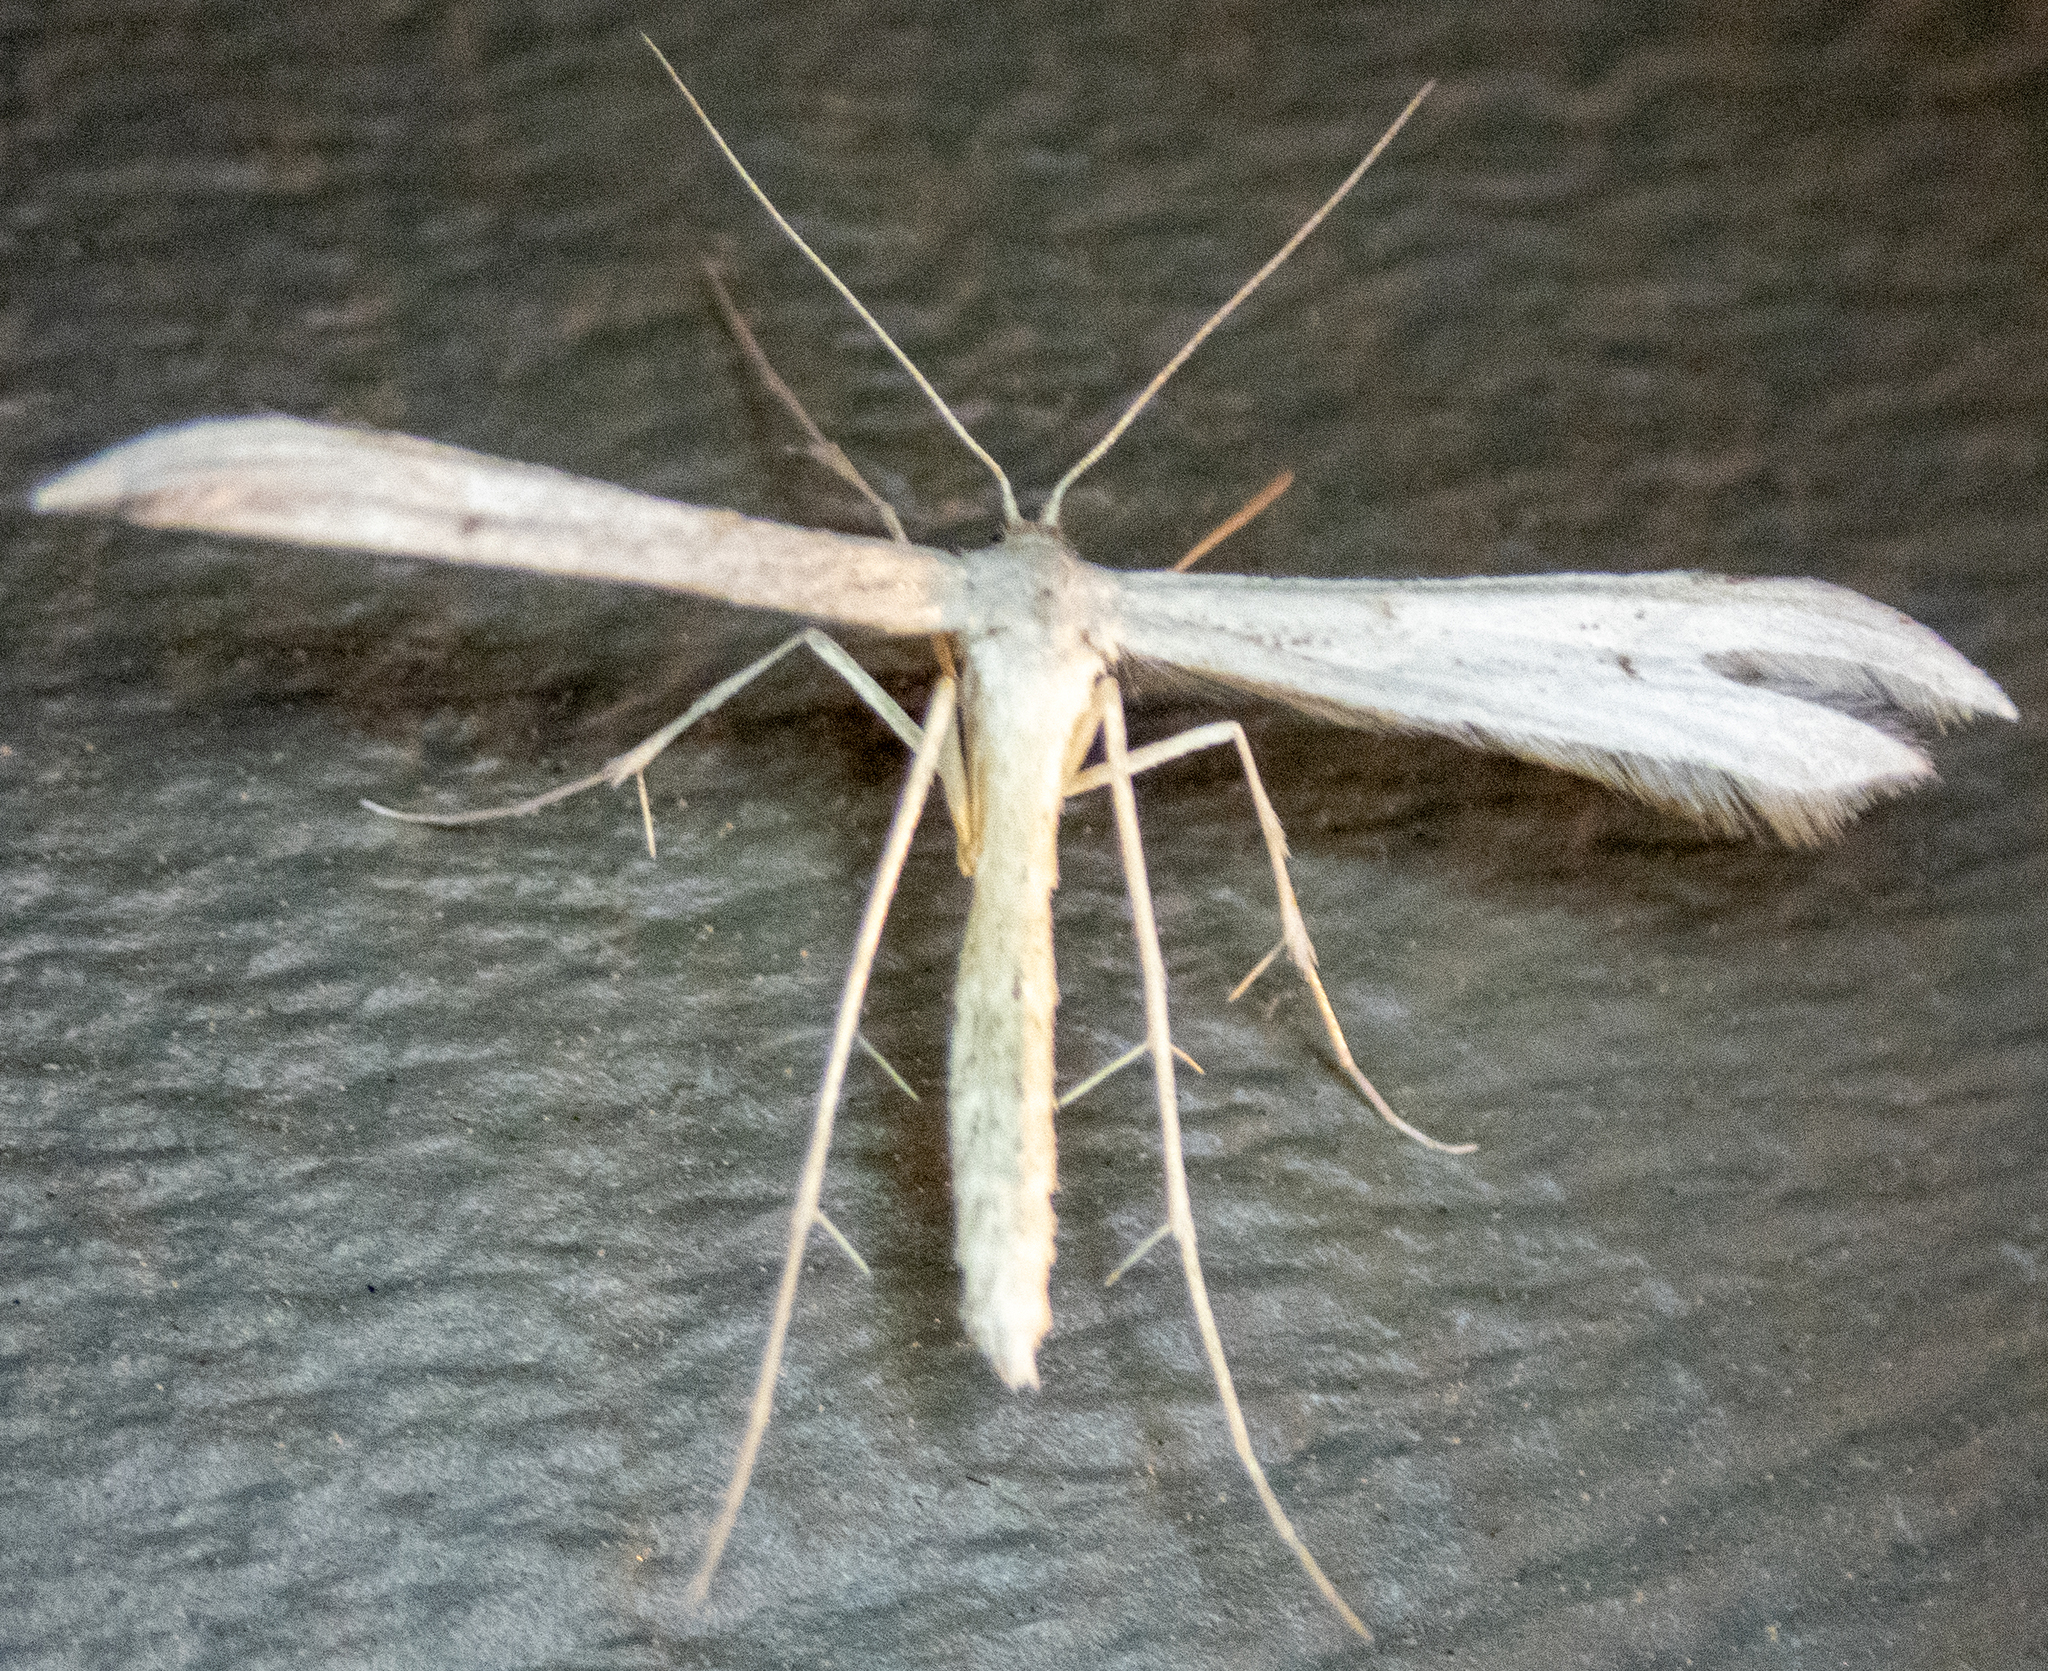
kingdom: Animalia
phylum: Arthropoda
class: Insecta
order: Lepidoptera
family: Pterophoridae
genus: Hellinsia
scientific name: Hellinsia elliottii
